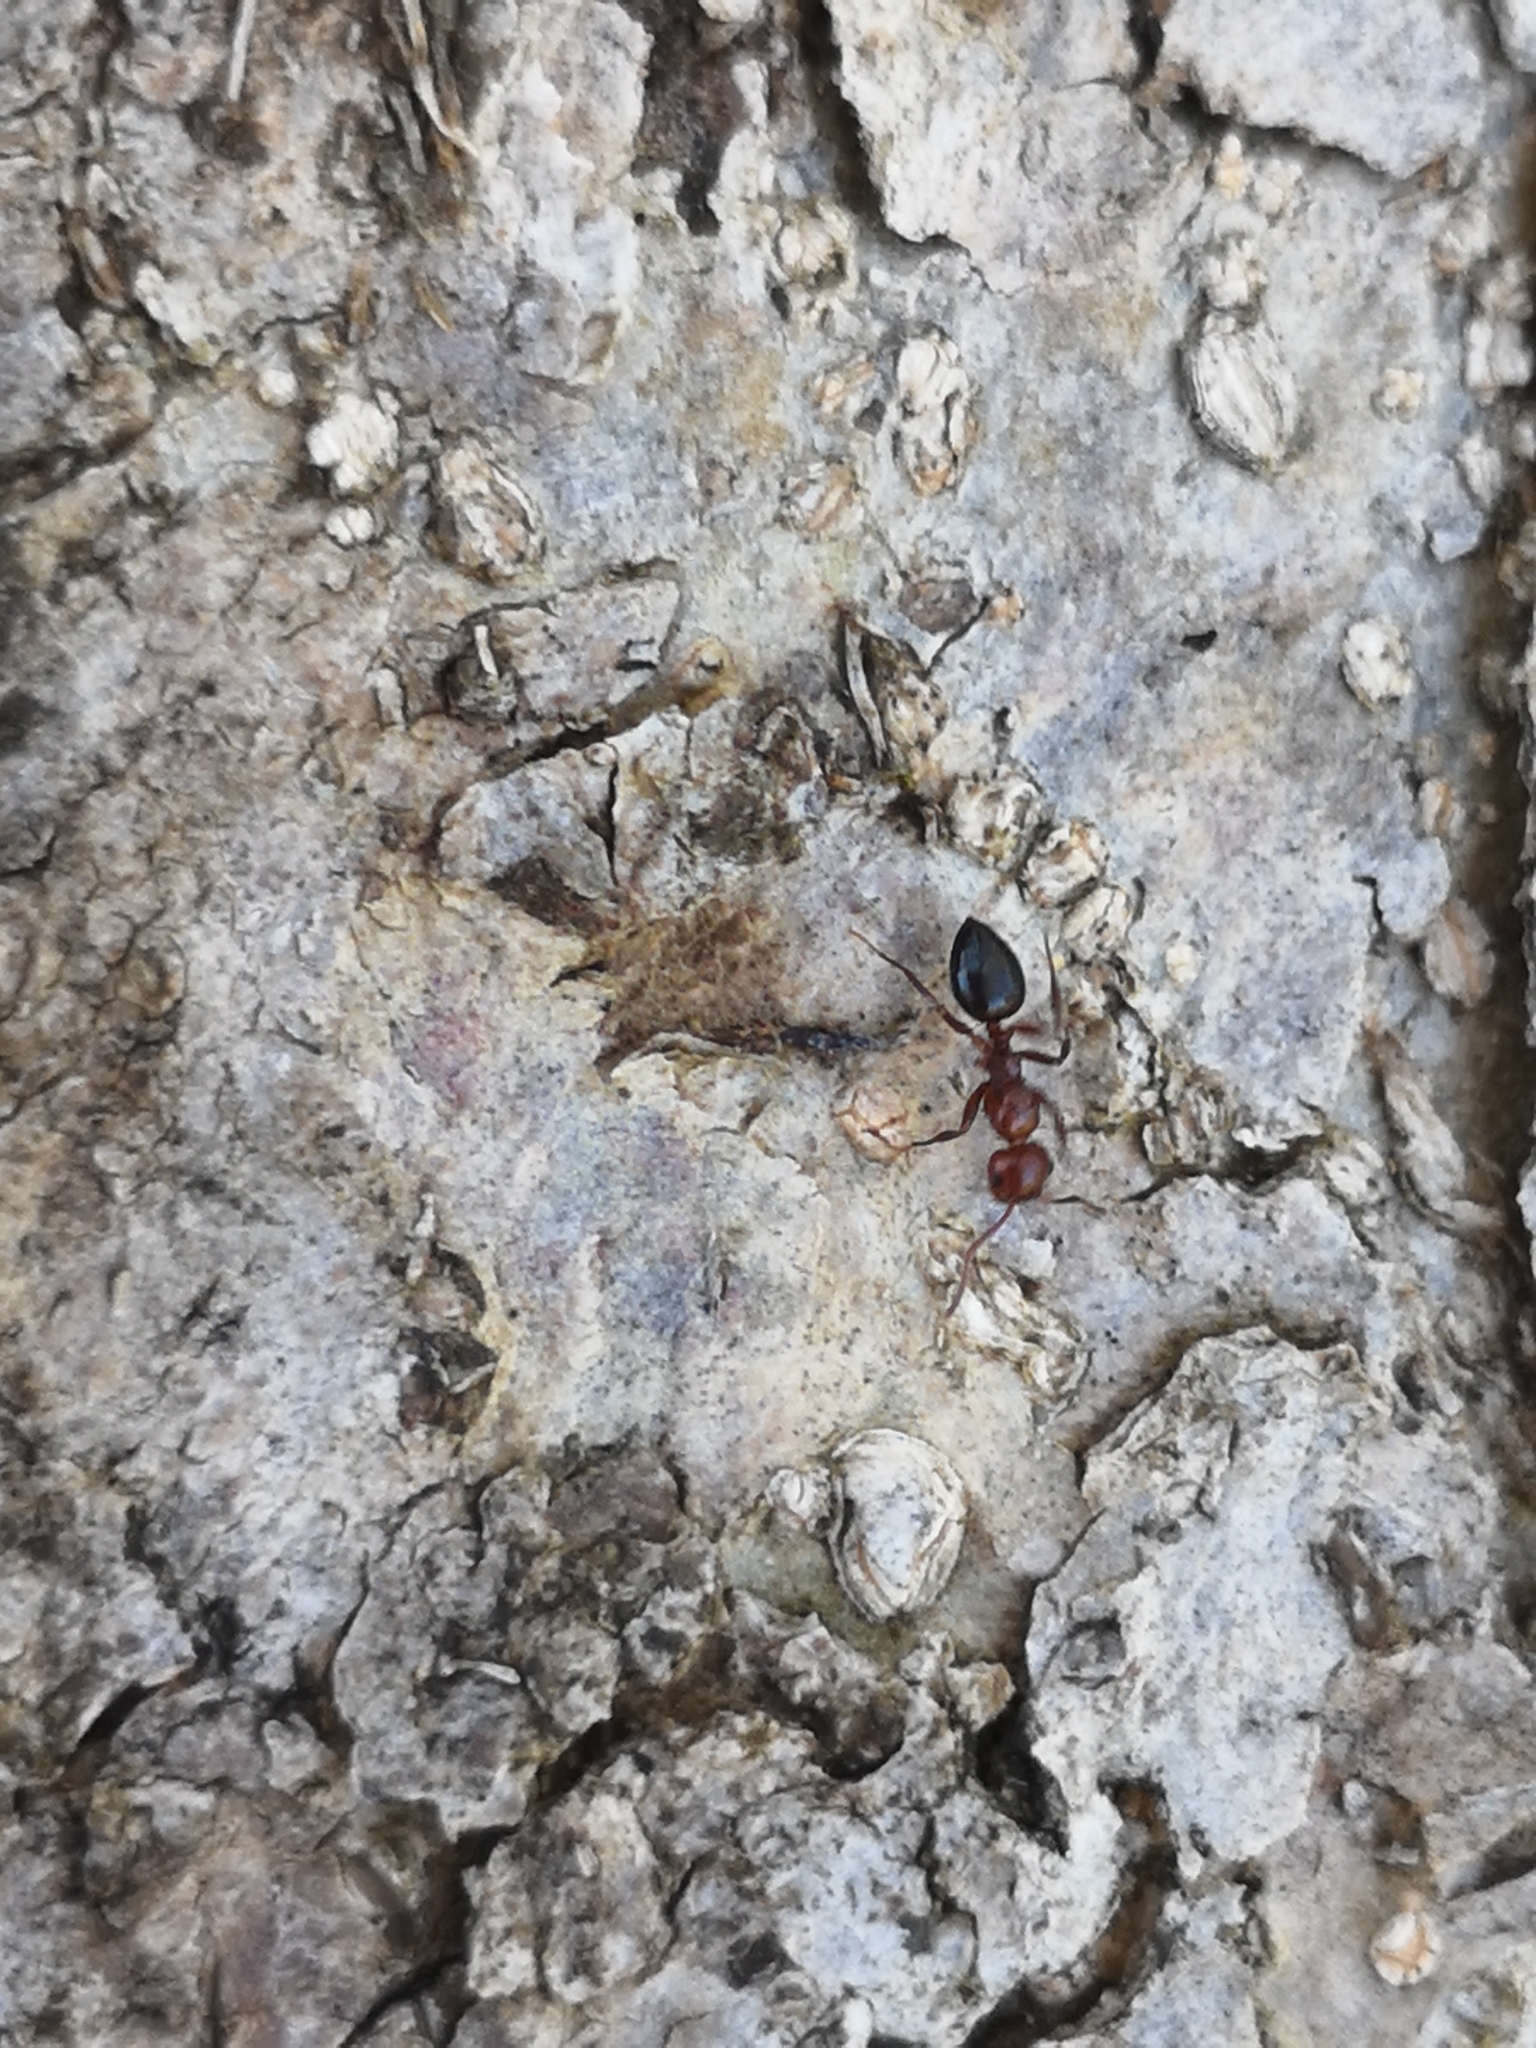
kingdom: Animalia
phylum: Arthropoda
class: Insecta
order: Hymenoptera
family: Formicidae
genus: Camponotus
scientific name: Camponotus lateralis
